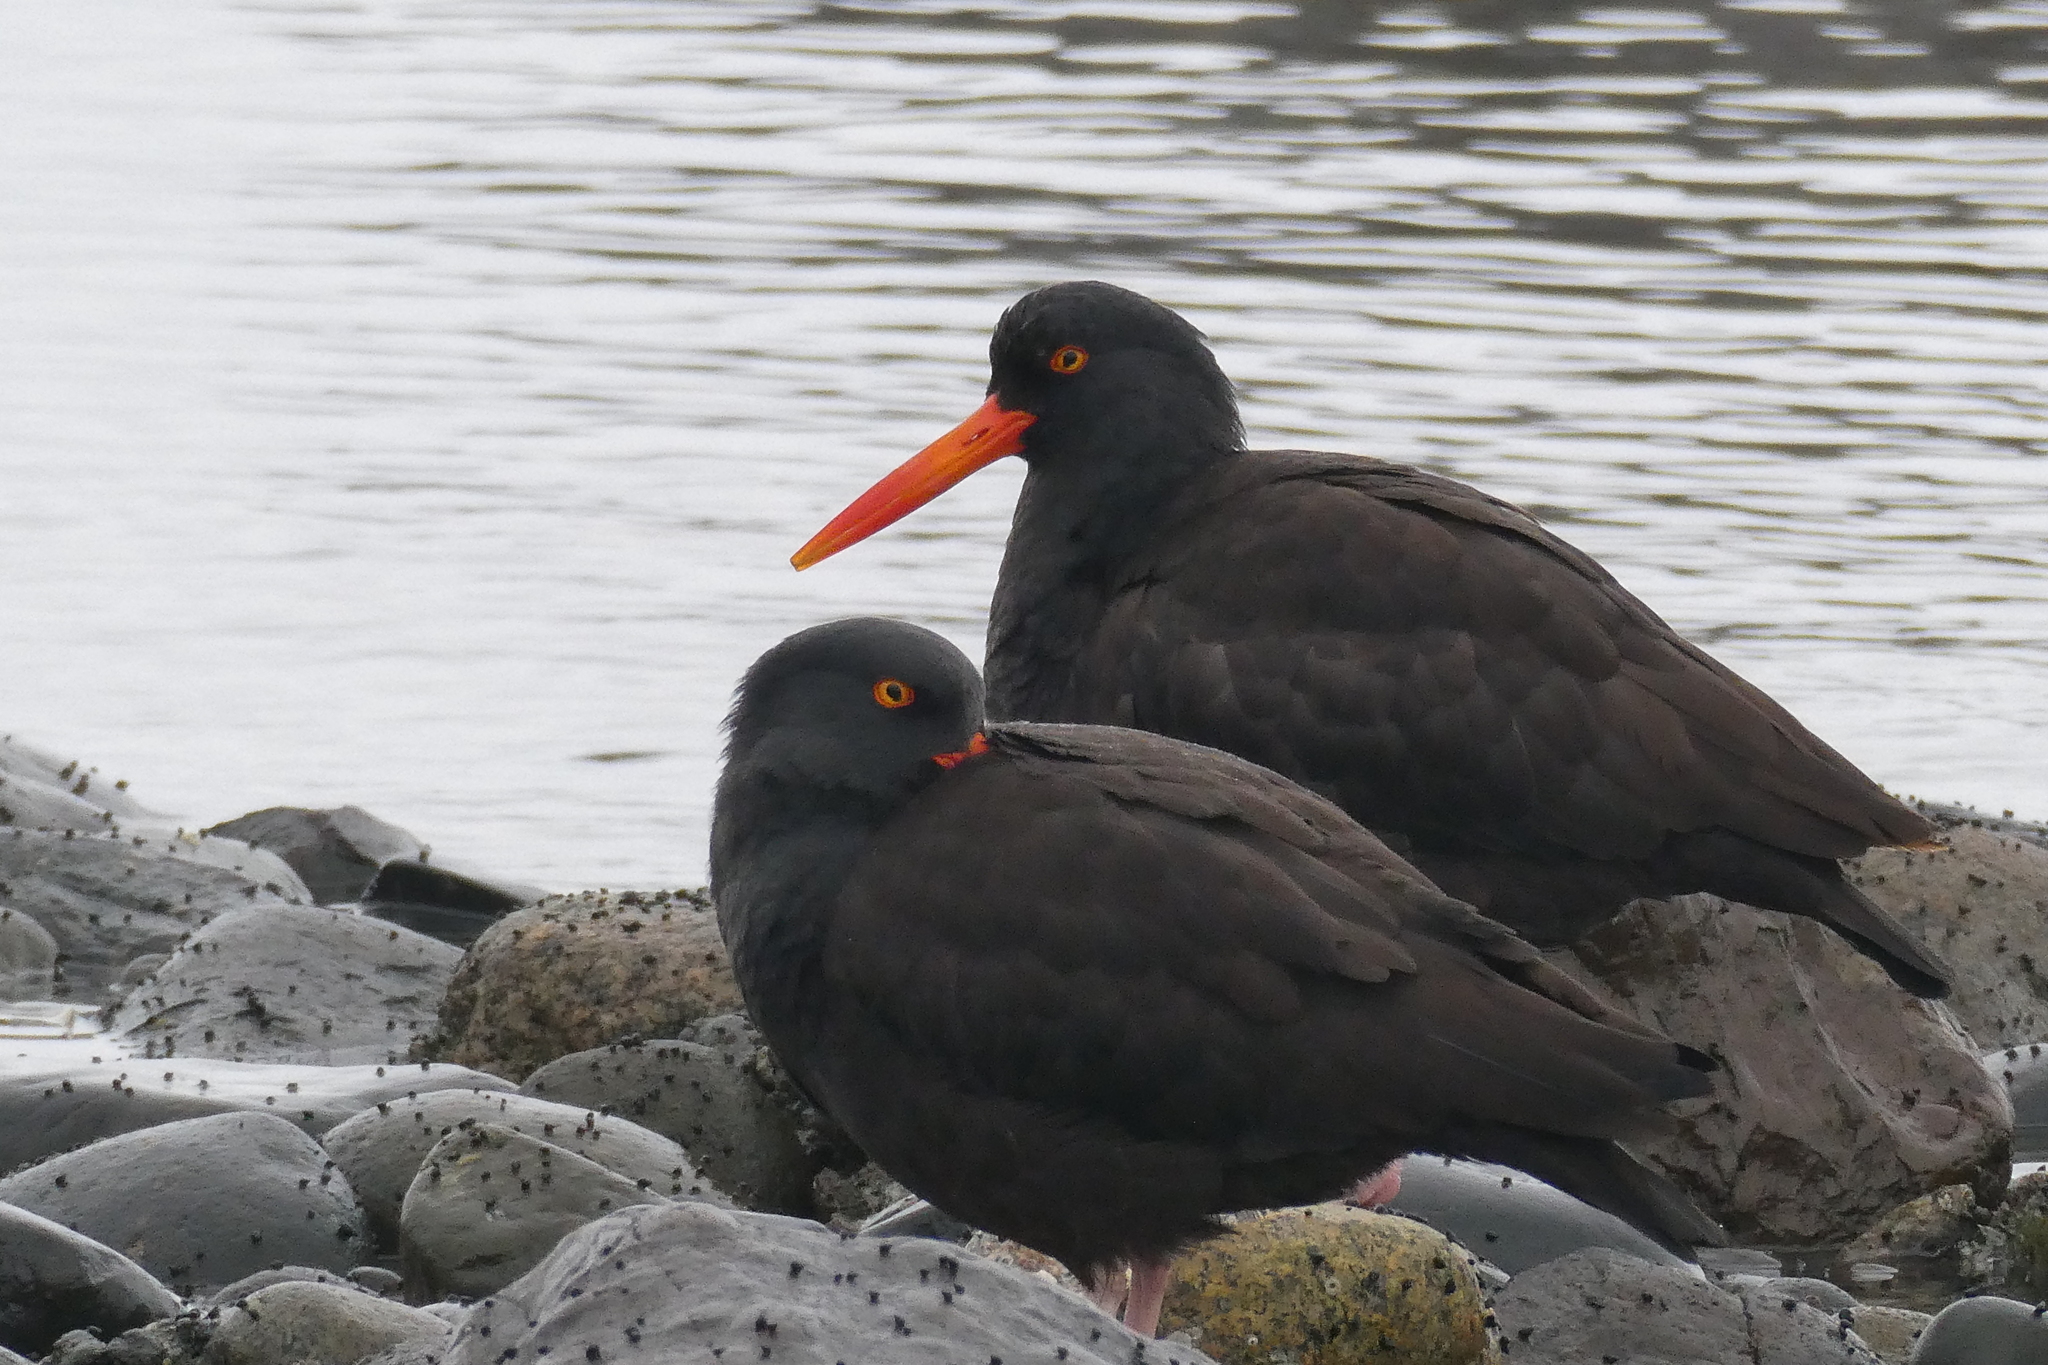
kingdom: Animalia
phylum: Chordata
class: Aves
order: Charadriiformes
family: Haematopodidae
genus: Haematopus
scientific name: Haematopus bachmani
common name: Black oystercatcher
